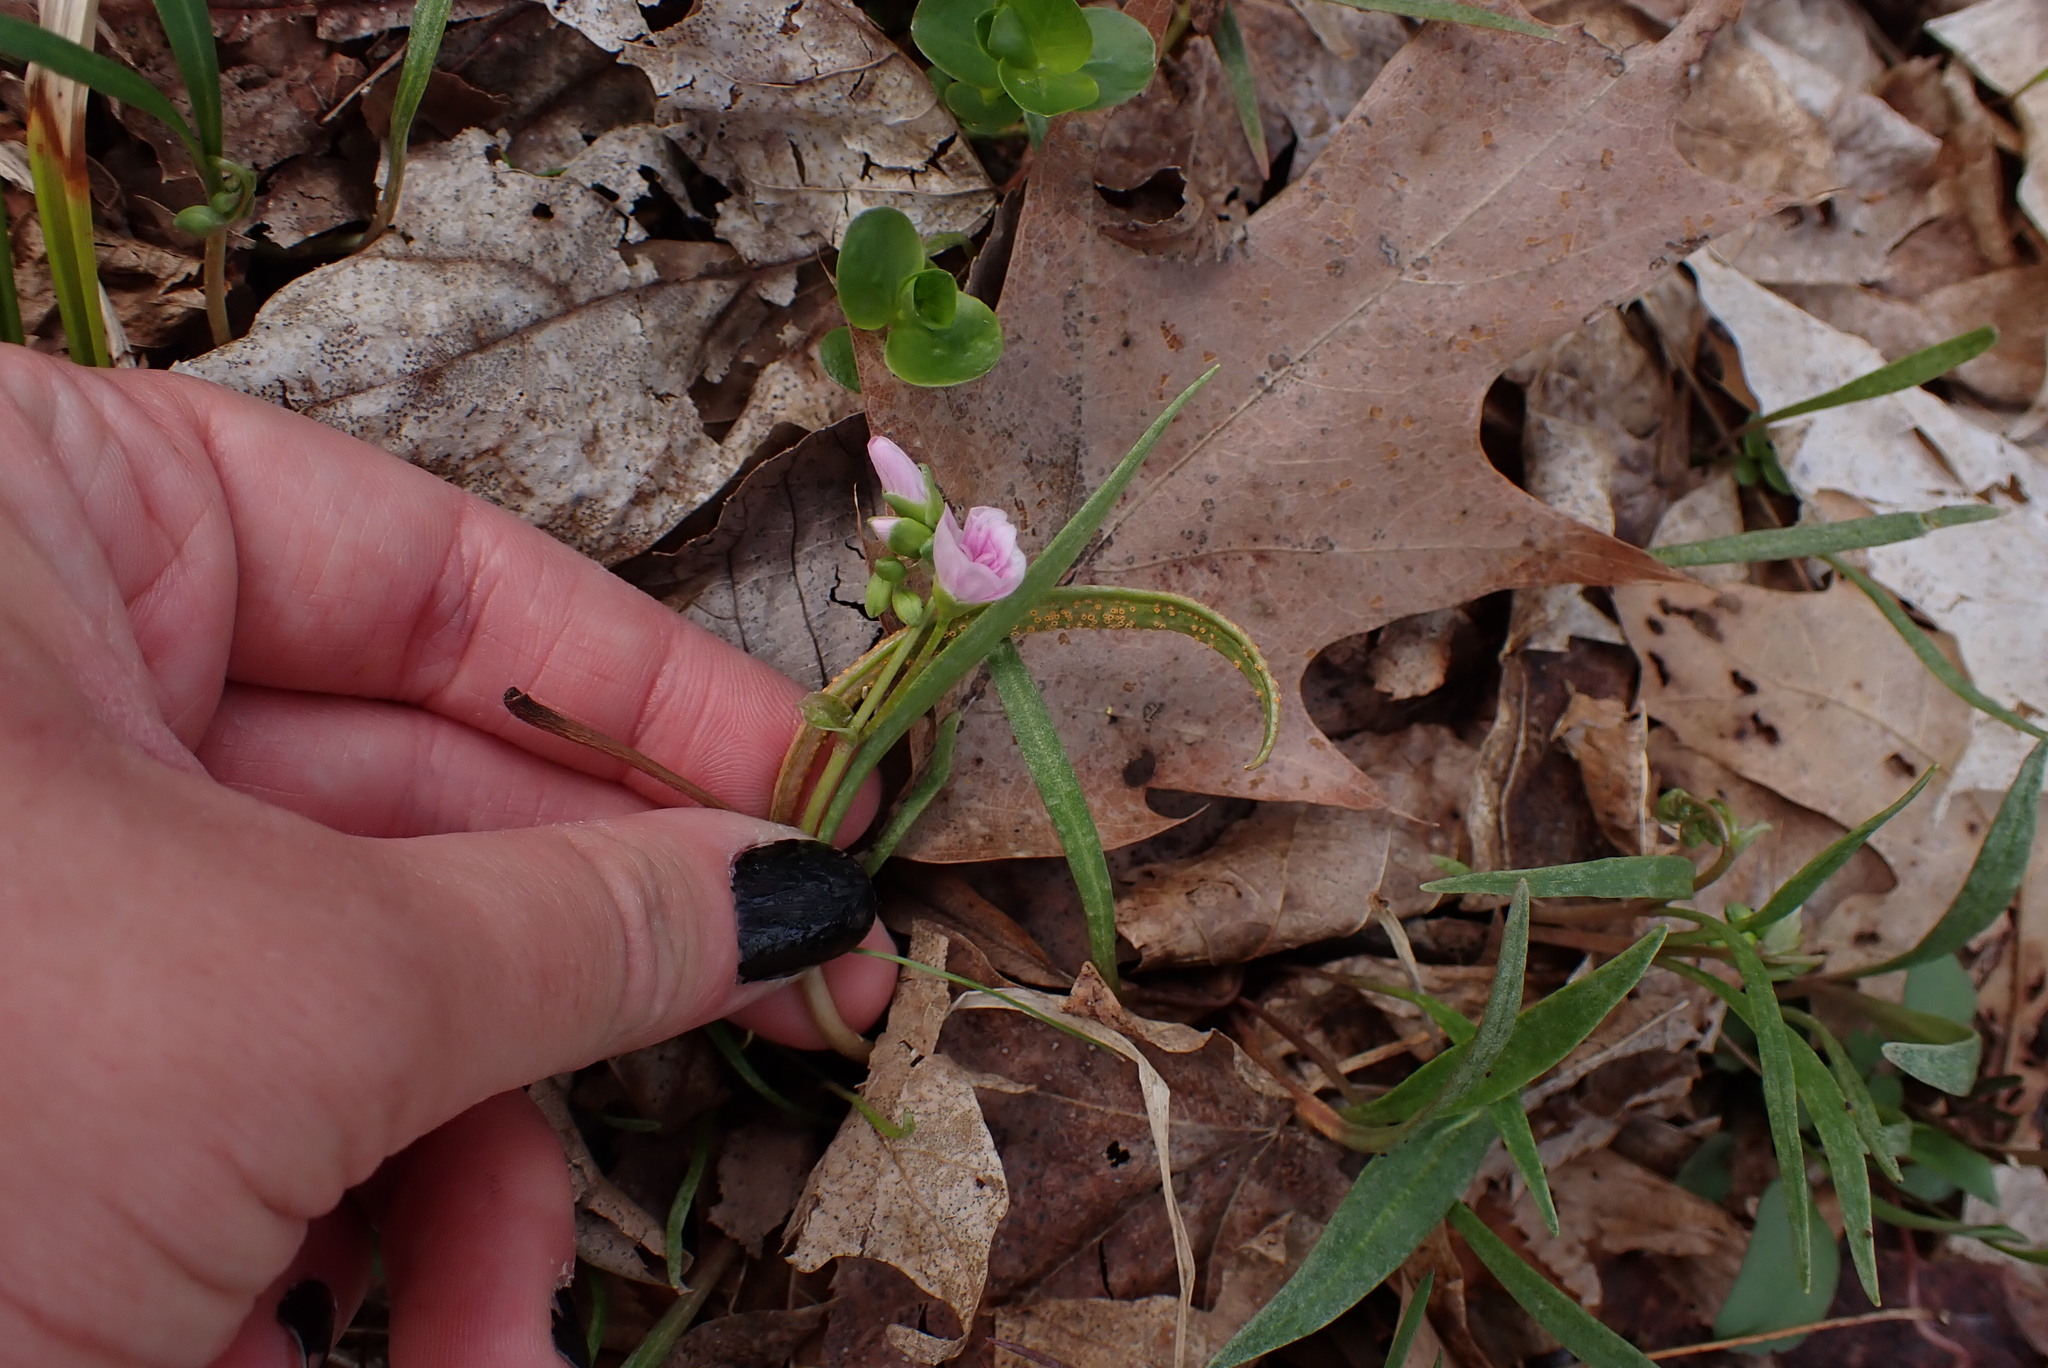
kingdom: Plantae
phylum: Tracheophyta
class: Magnoliopsida
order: Caryophyllales
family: Montiaceae
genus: Claytonia
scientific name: Claytonia virginica
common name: Virginia springbeauty
